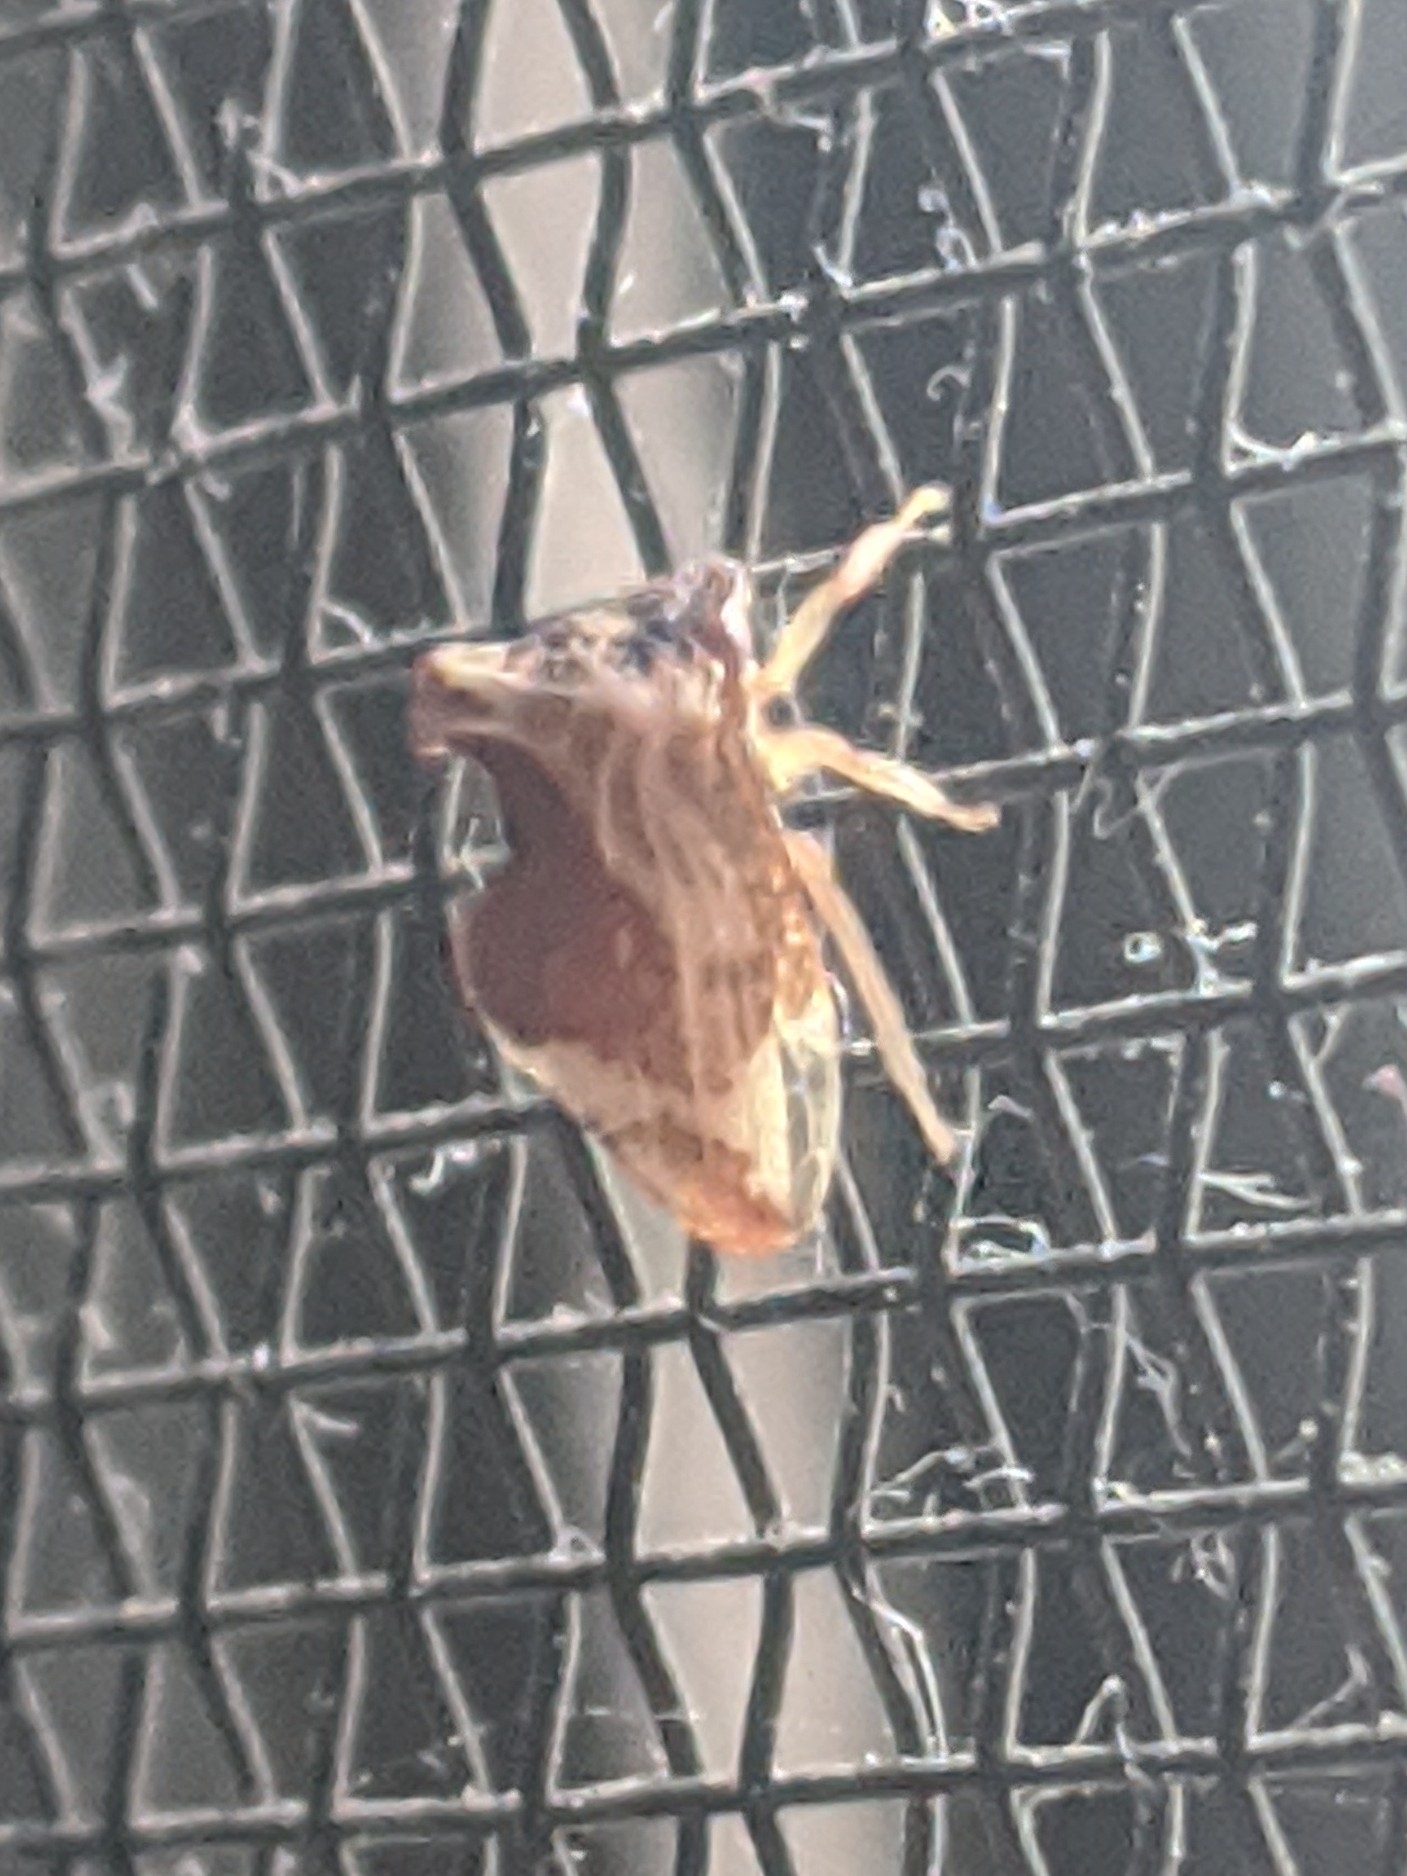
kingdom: Animalia
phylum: Arthropoda
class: Insecta
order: Hemiptera
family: Membracidae
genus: Entylia
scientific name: Entylia carinata
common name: Keeled treehopper
